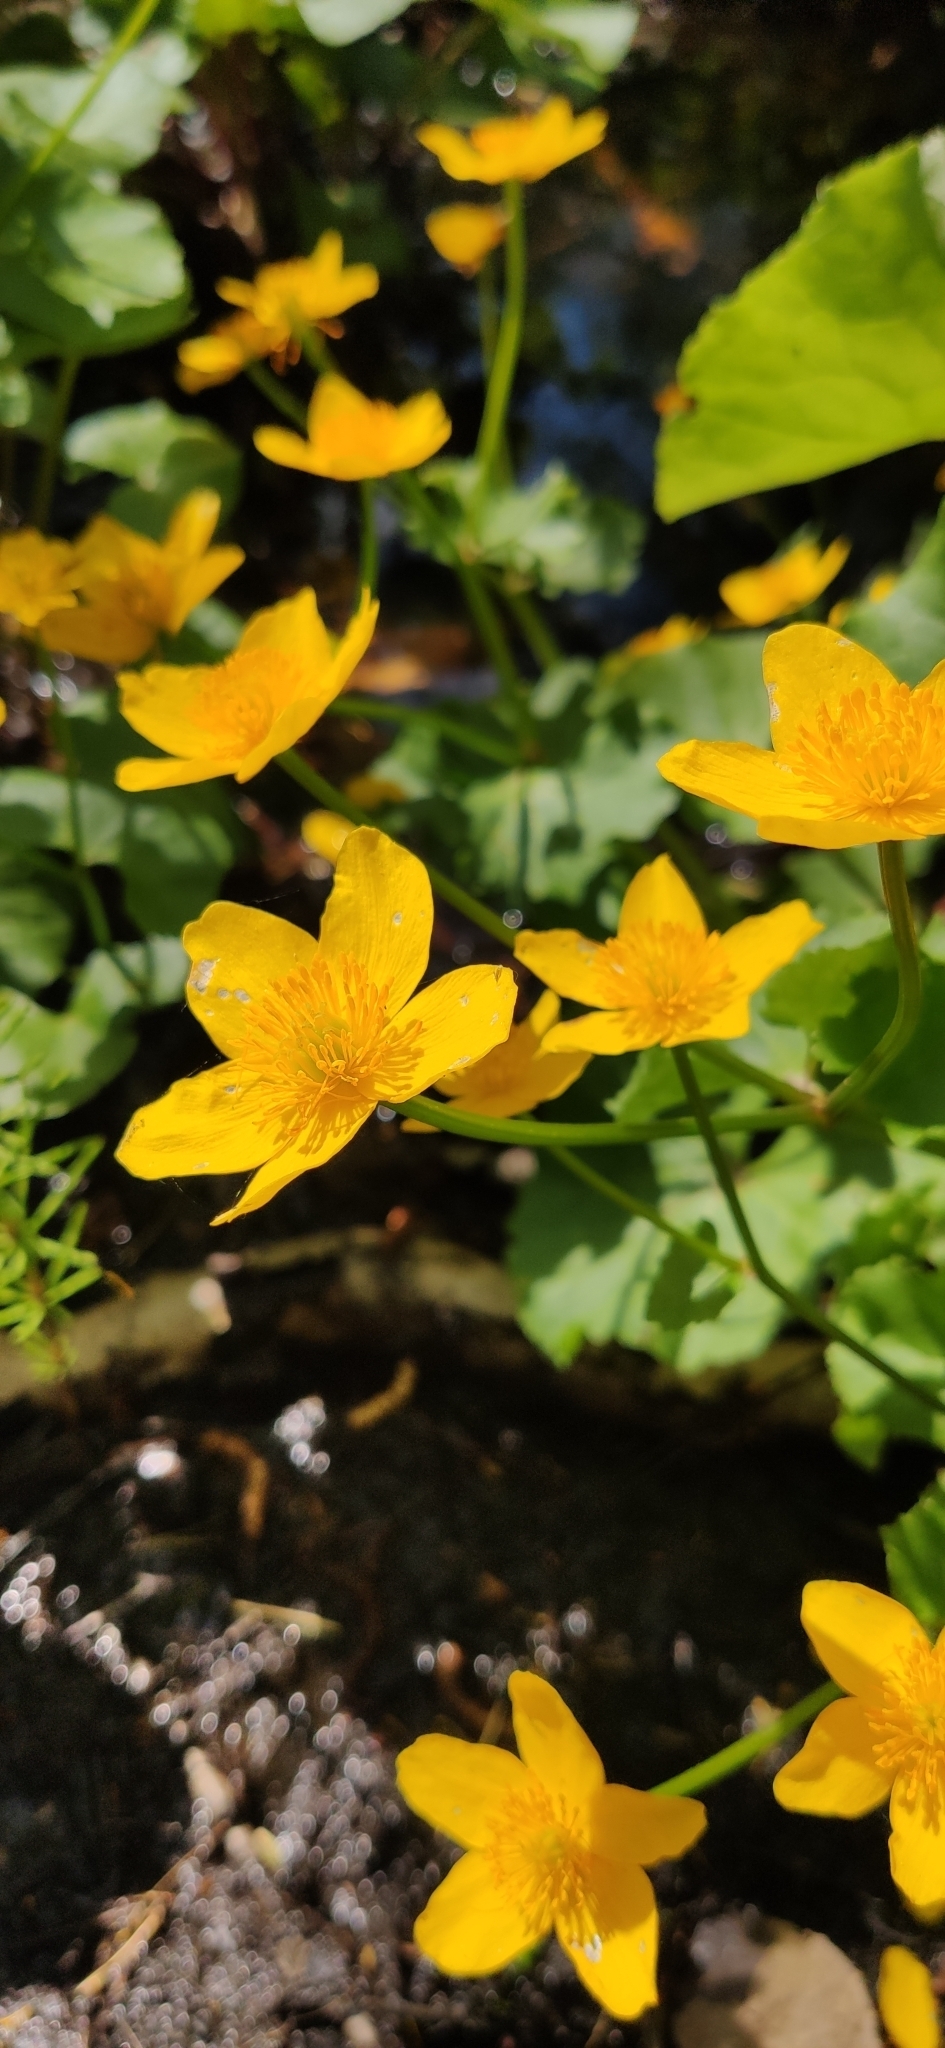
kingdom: Plantae
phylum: Tracheophyta
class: Magnoliopsida
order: Ranunculales
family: Ranunculaceae
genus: Caltha
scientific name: Caltha palustris
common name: Marsh marigold
